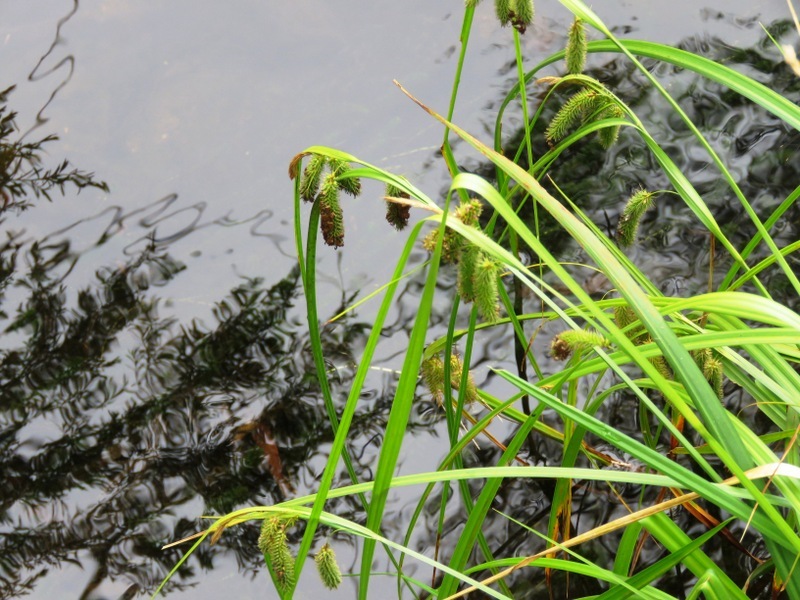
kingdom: Plantae
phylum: Tracheophyta
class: Liliopsida
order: Poales
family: Cyperaceae
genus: Carex
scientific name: Carex fascicularis
